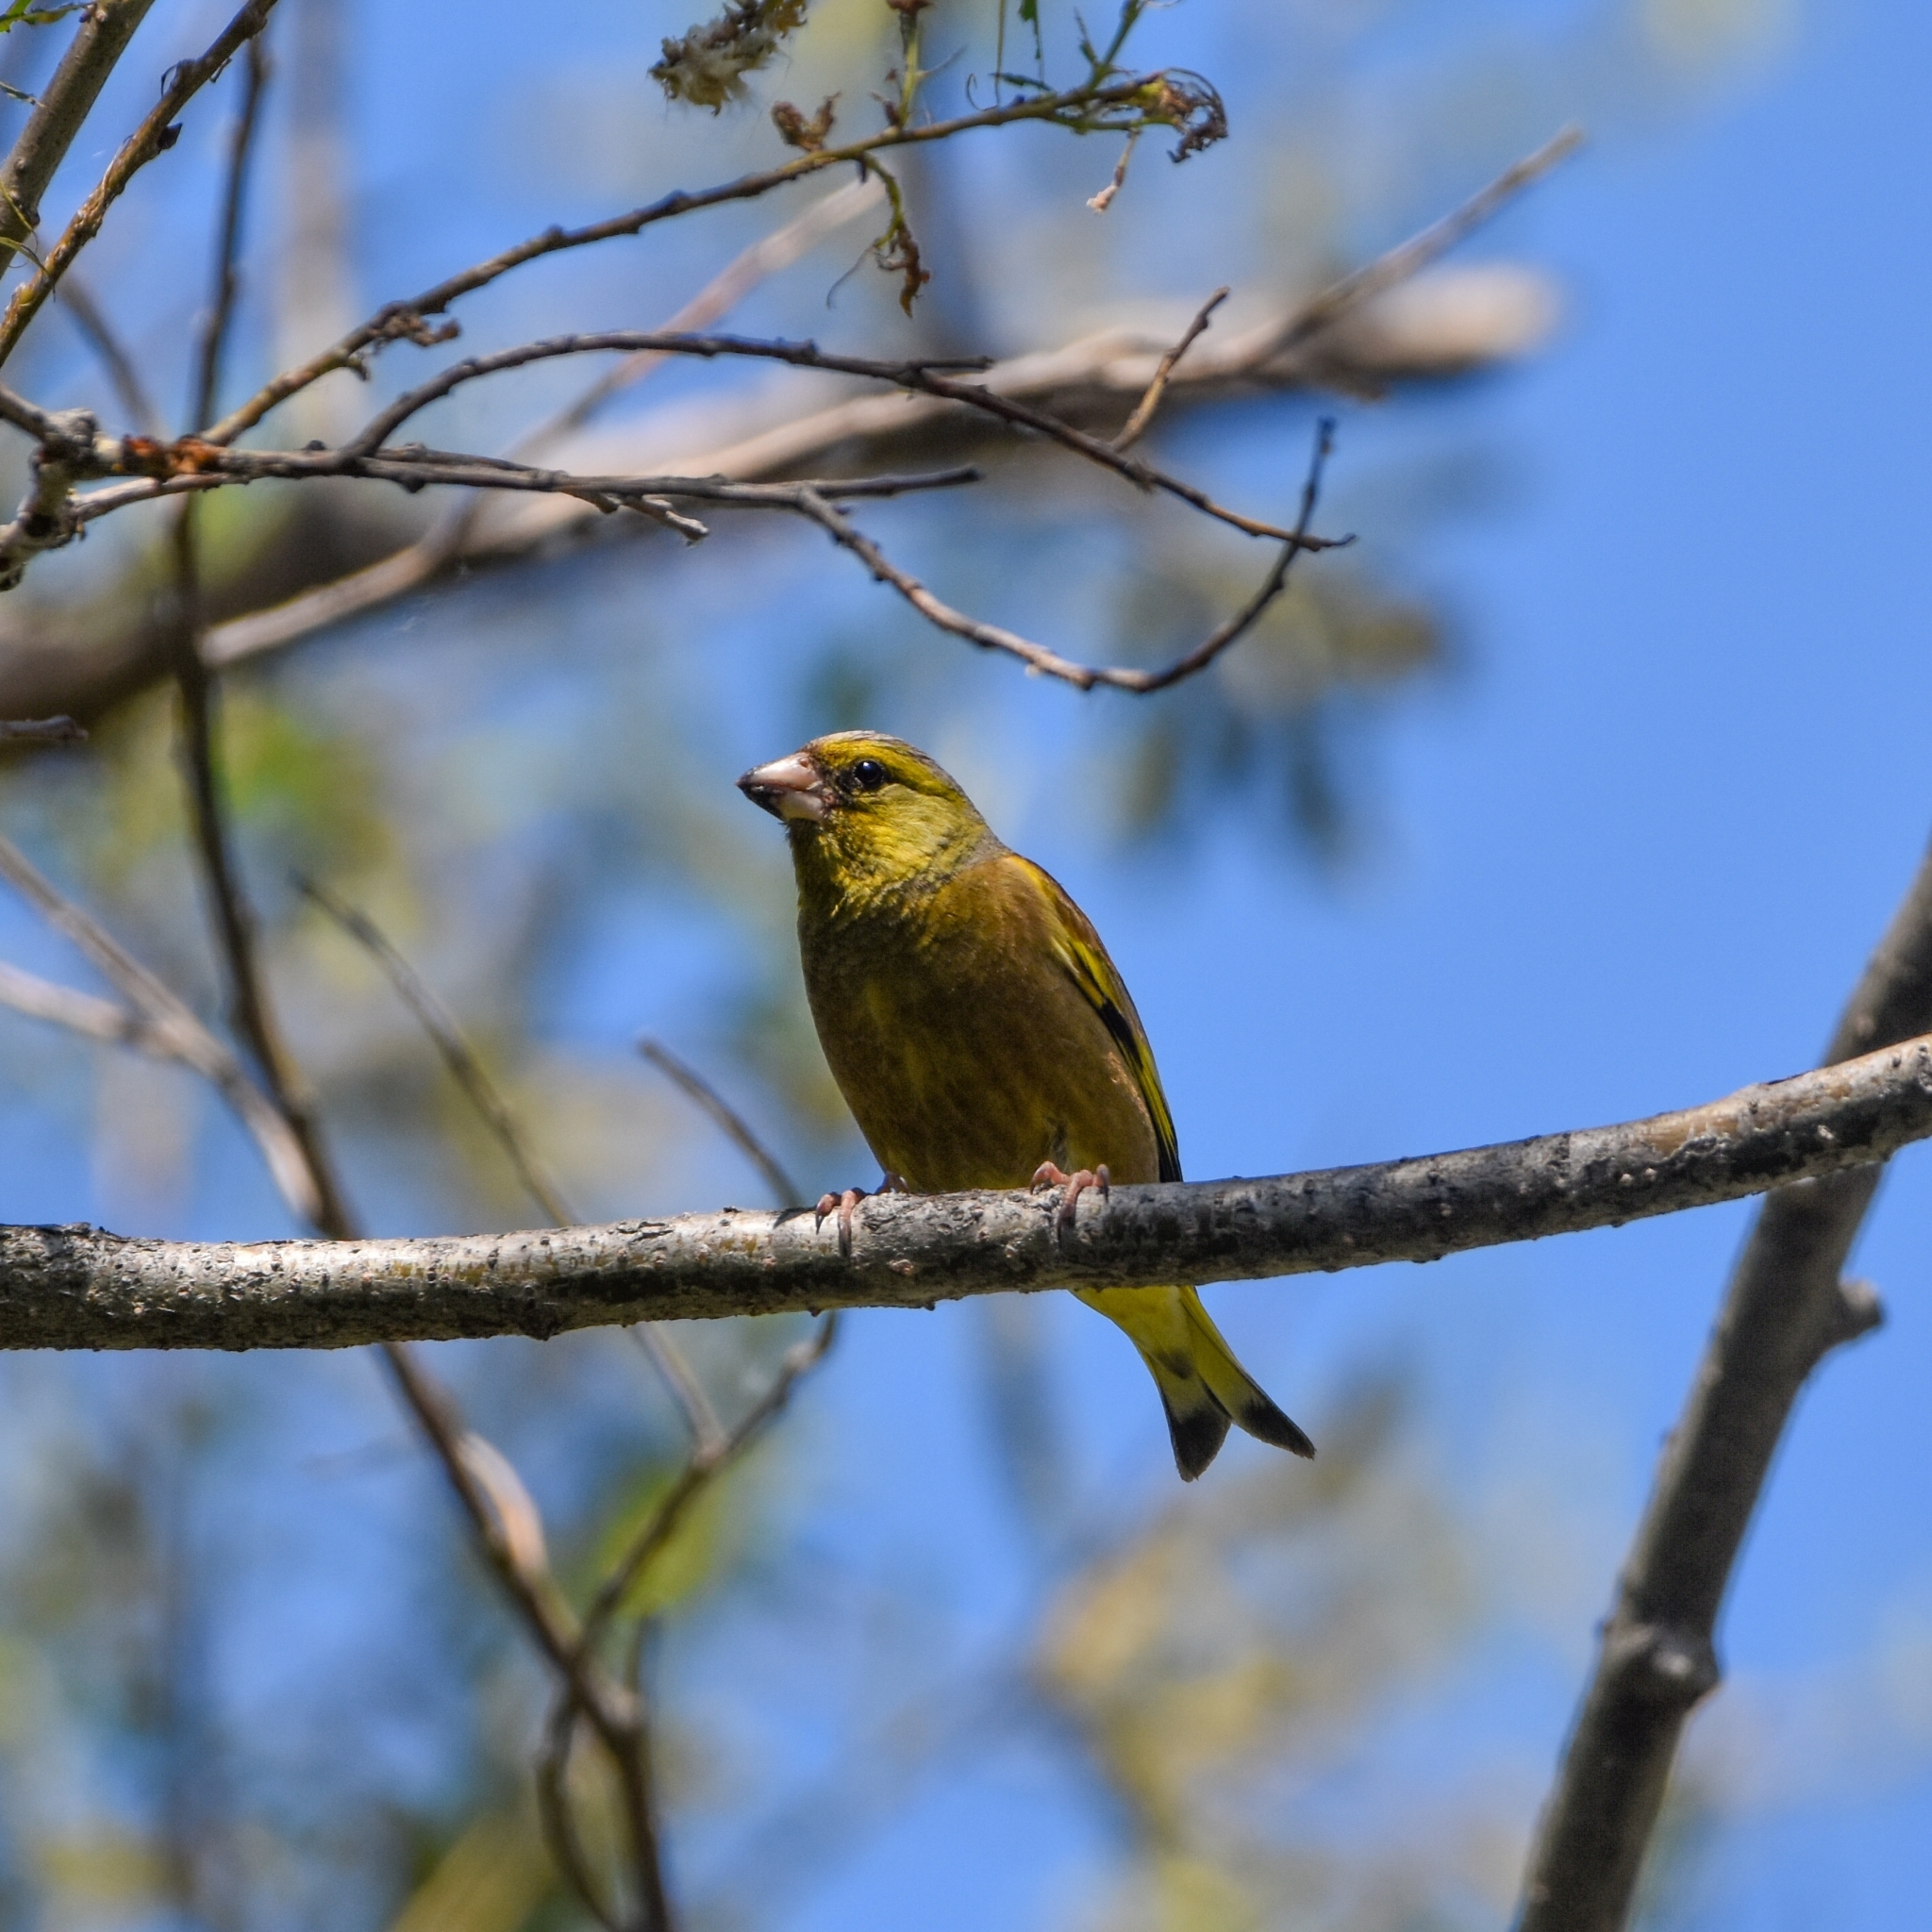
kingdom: Plantae
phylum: Tracheophyta
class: Liliopsida
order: Poales
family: Poaceae
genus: Chloris
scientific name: Chloris sinica
